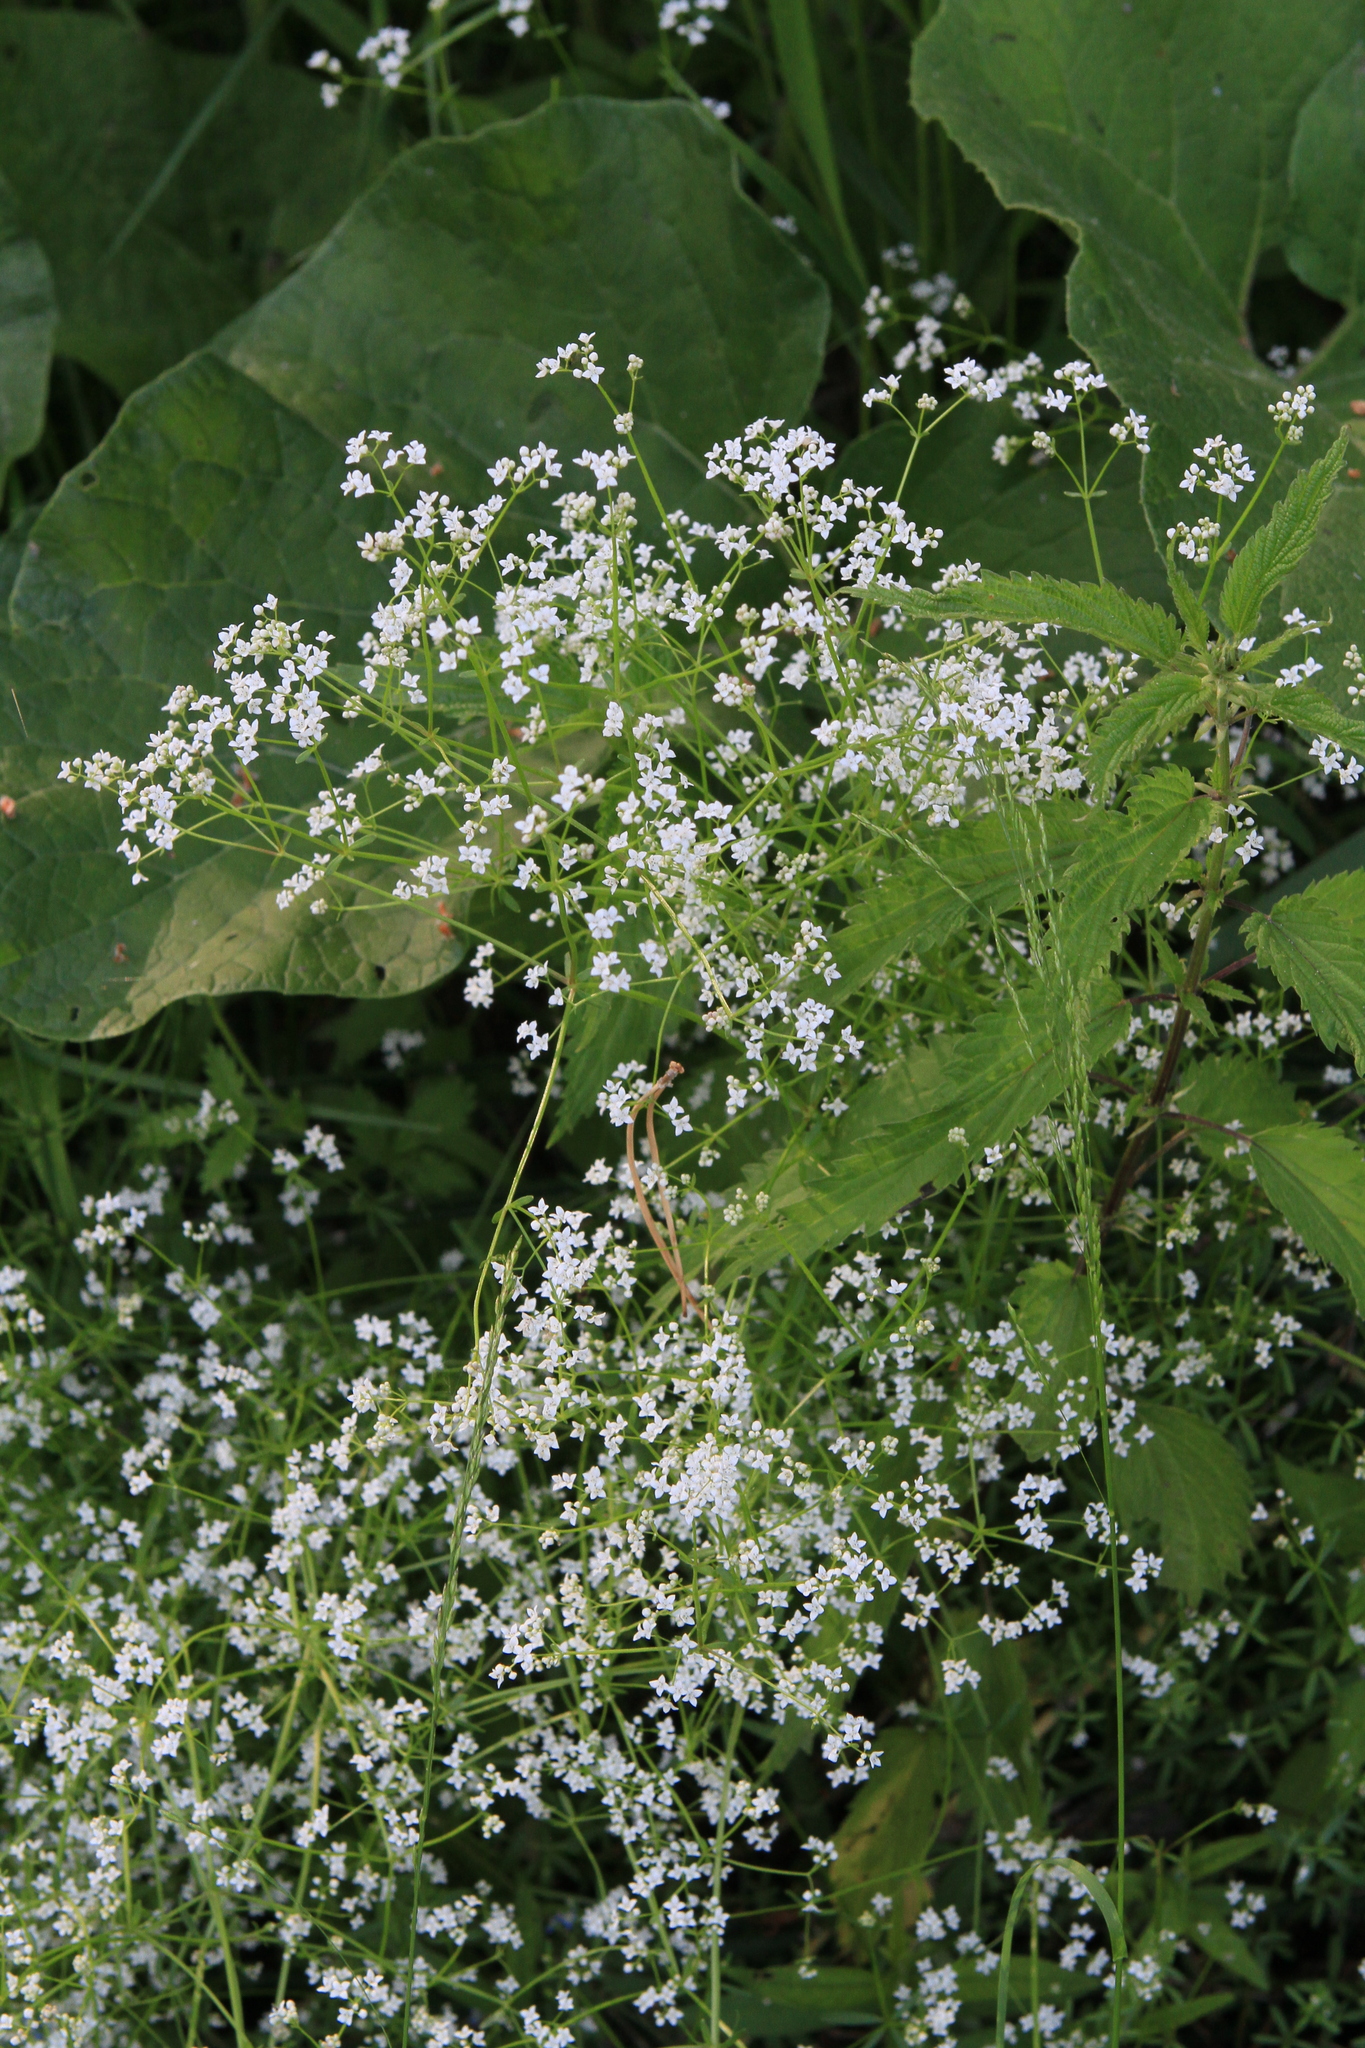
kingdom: Plantae
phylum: Tracheophyta
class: Magnoliopsida
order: Gentianales
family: Rubiaceae
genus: Galium
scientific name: Galium palustre
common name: Common marsh-bedstraw
